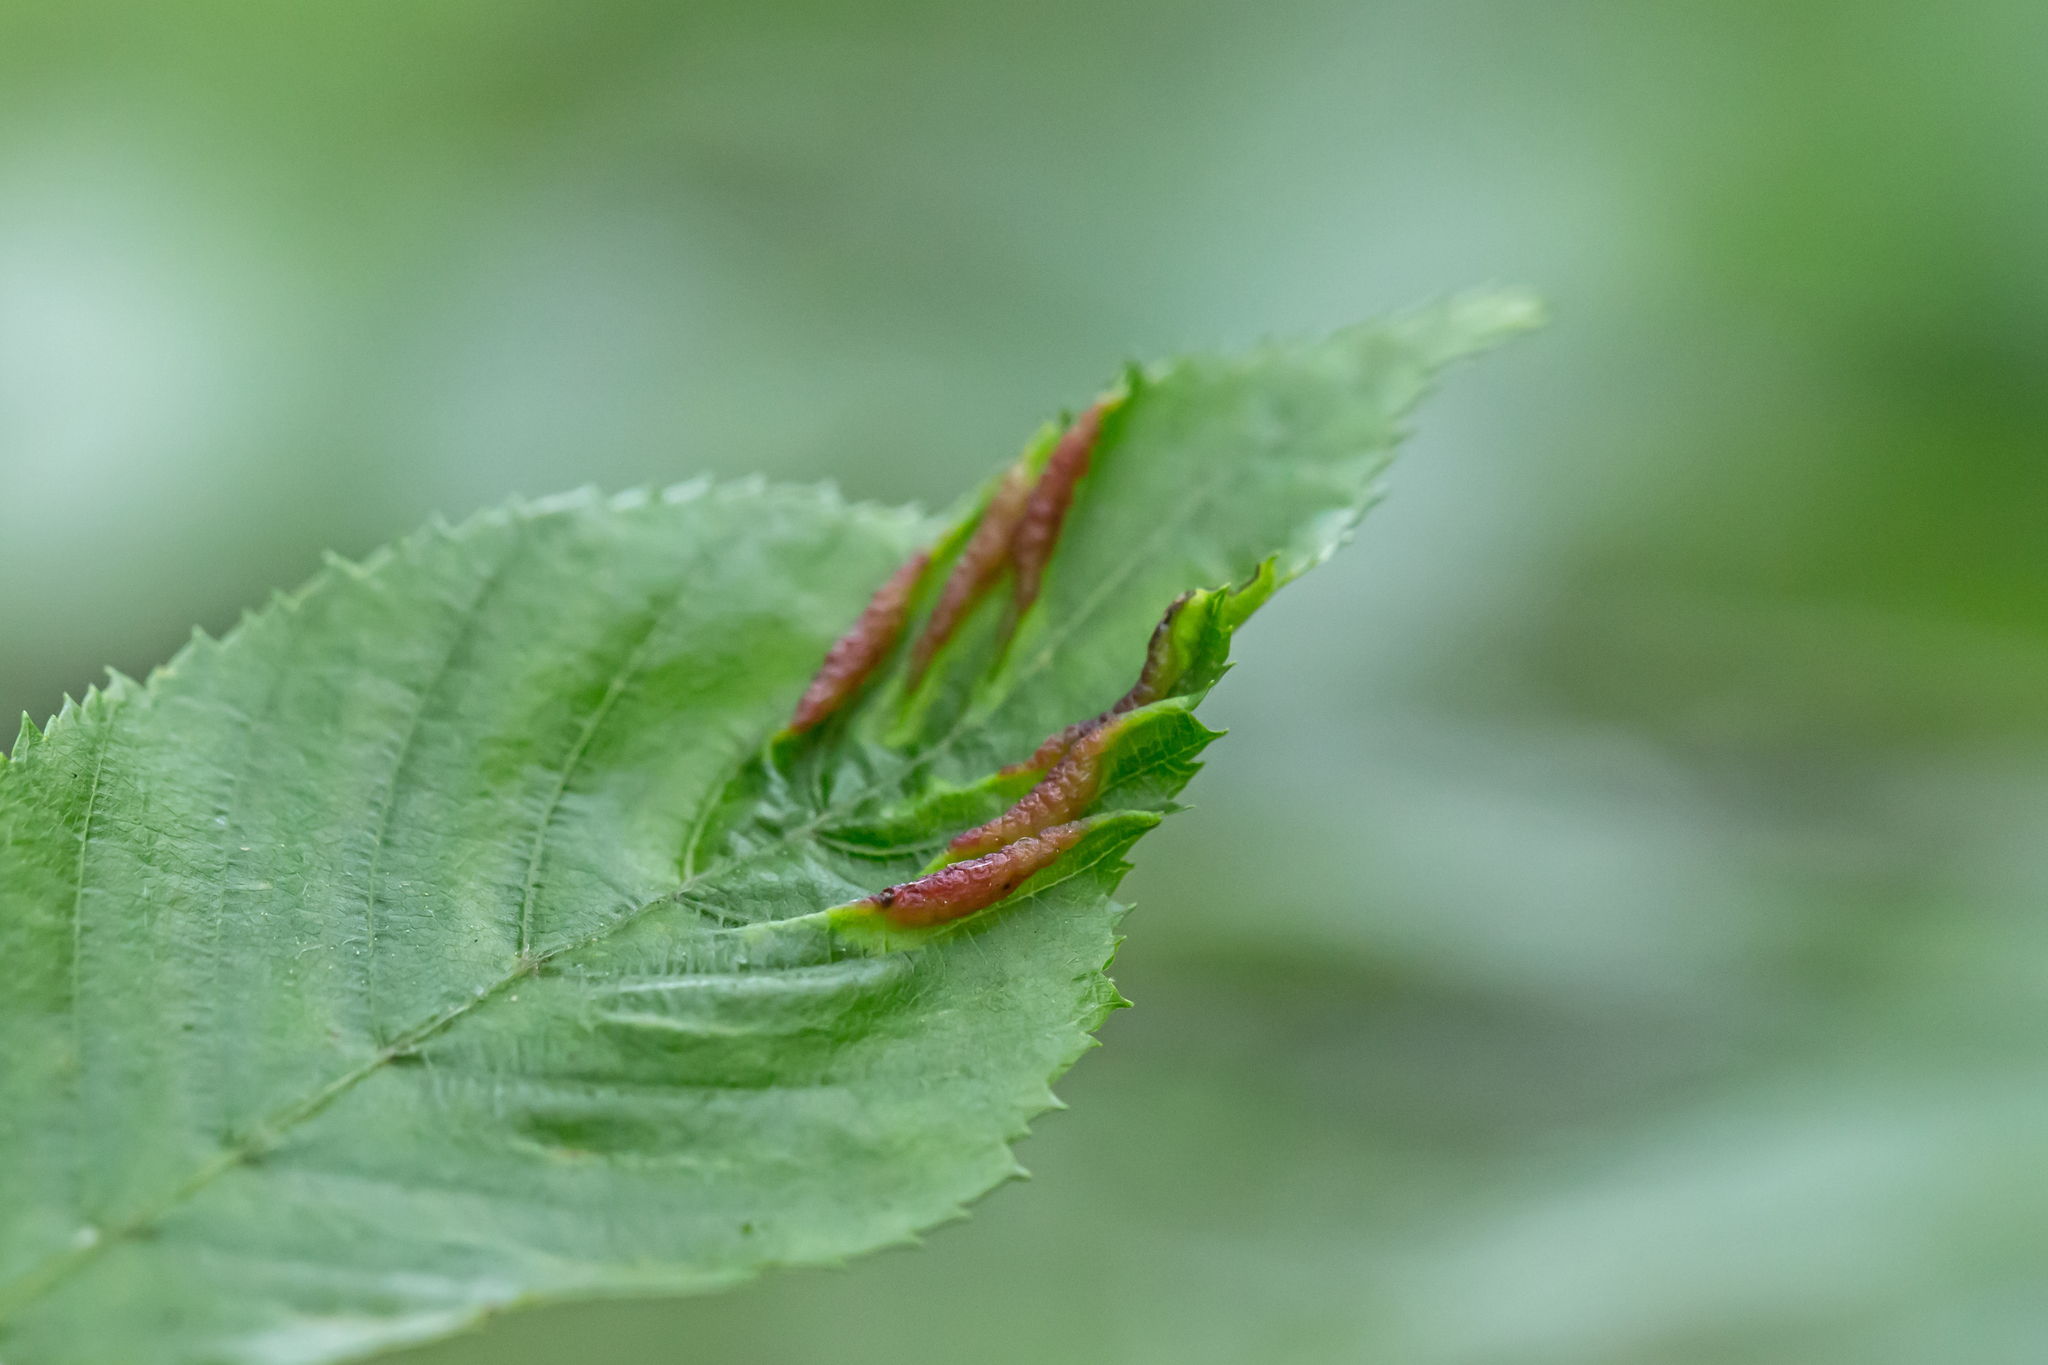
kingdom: Animalia
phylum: Arthropoda
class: Insecta
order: Diptera
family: Cecidomyiidae
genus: Dasineura
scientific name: Dasineura pudibunda
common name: Hornbeam leaf gall midge
